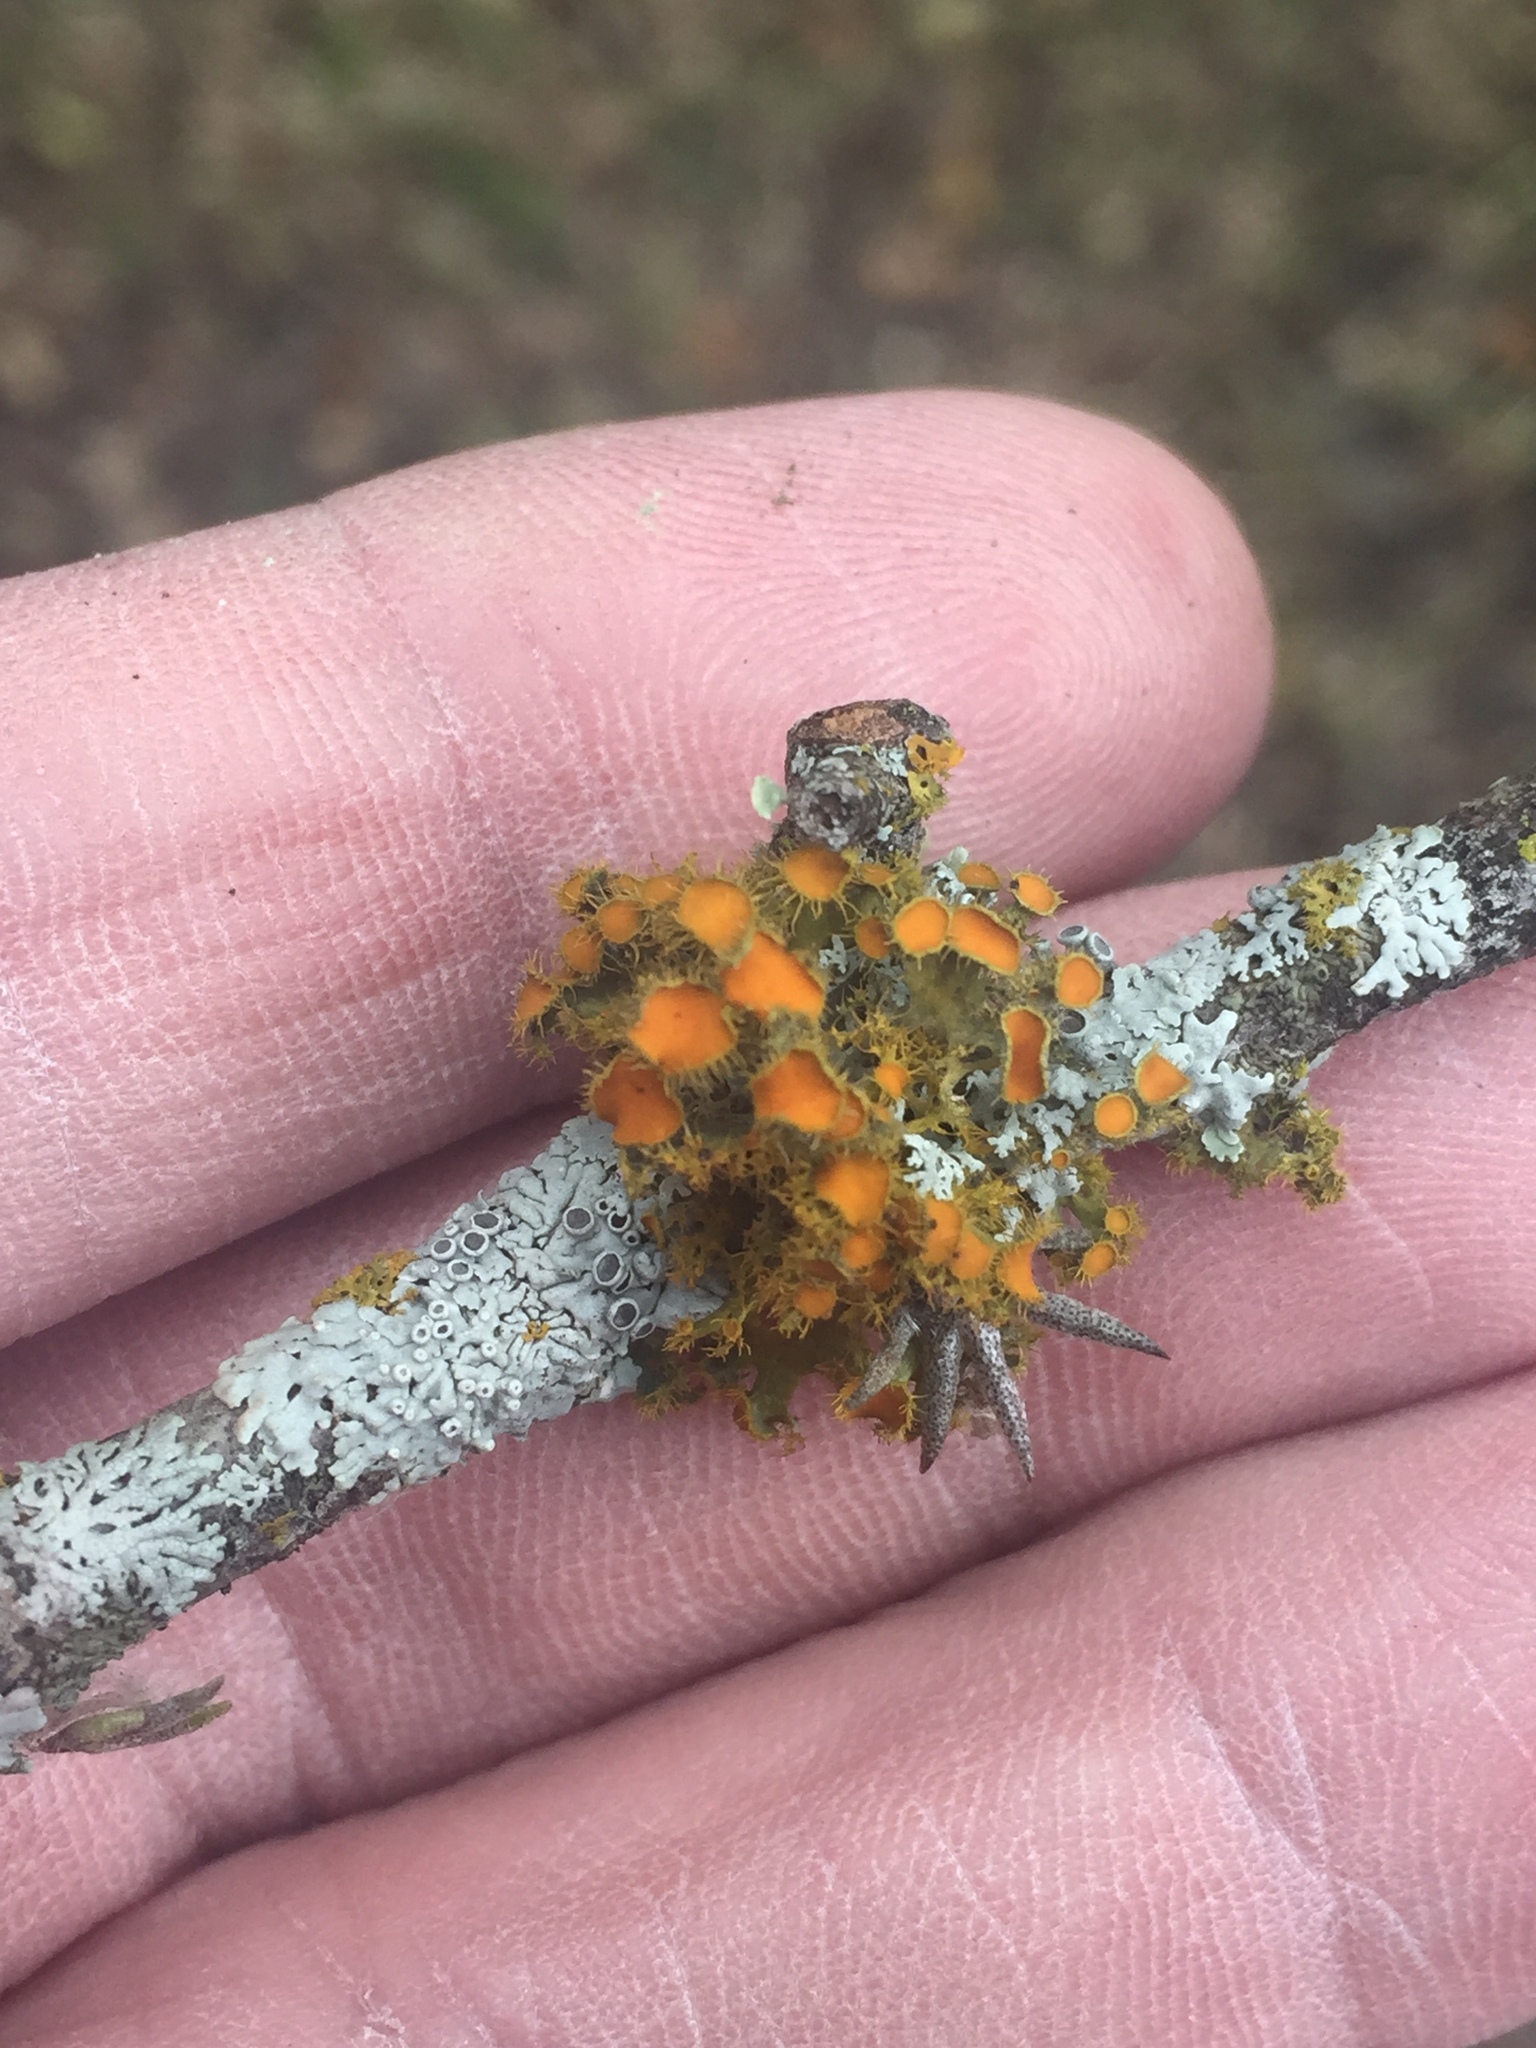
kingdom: Fungi
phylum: Ascomycota
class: Lecanoromycetes
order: Teloschistales
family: Teloschistaceae
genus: Niorma
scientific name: Niorma chrysophthalma
